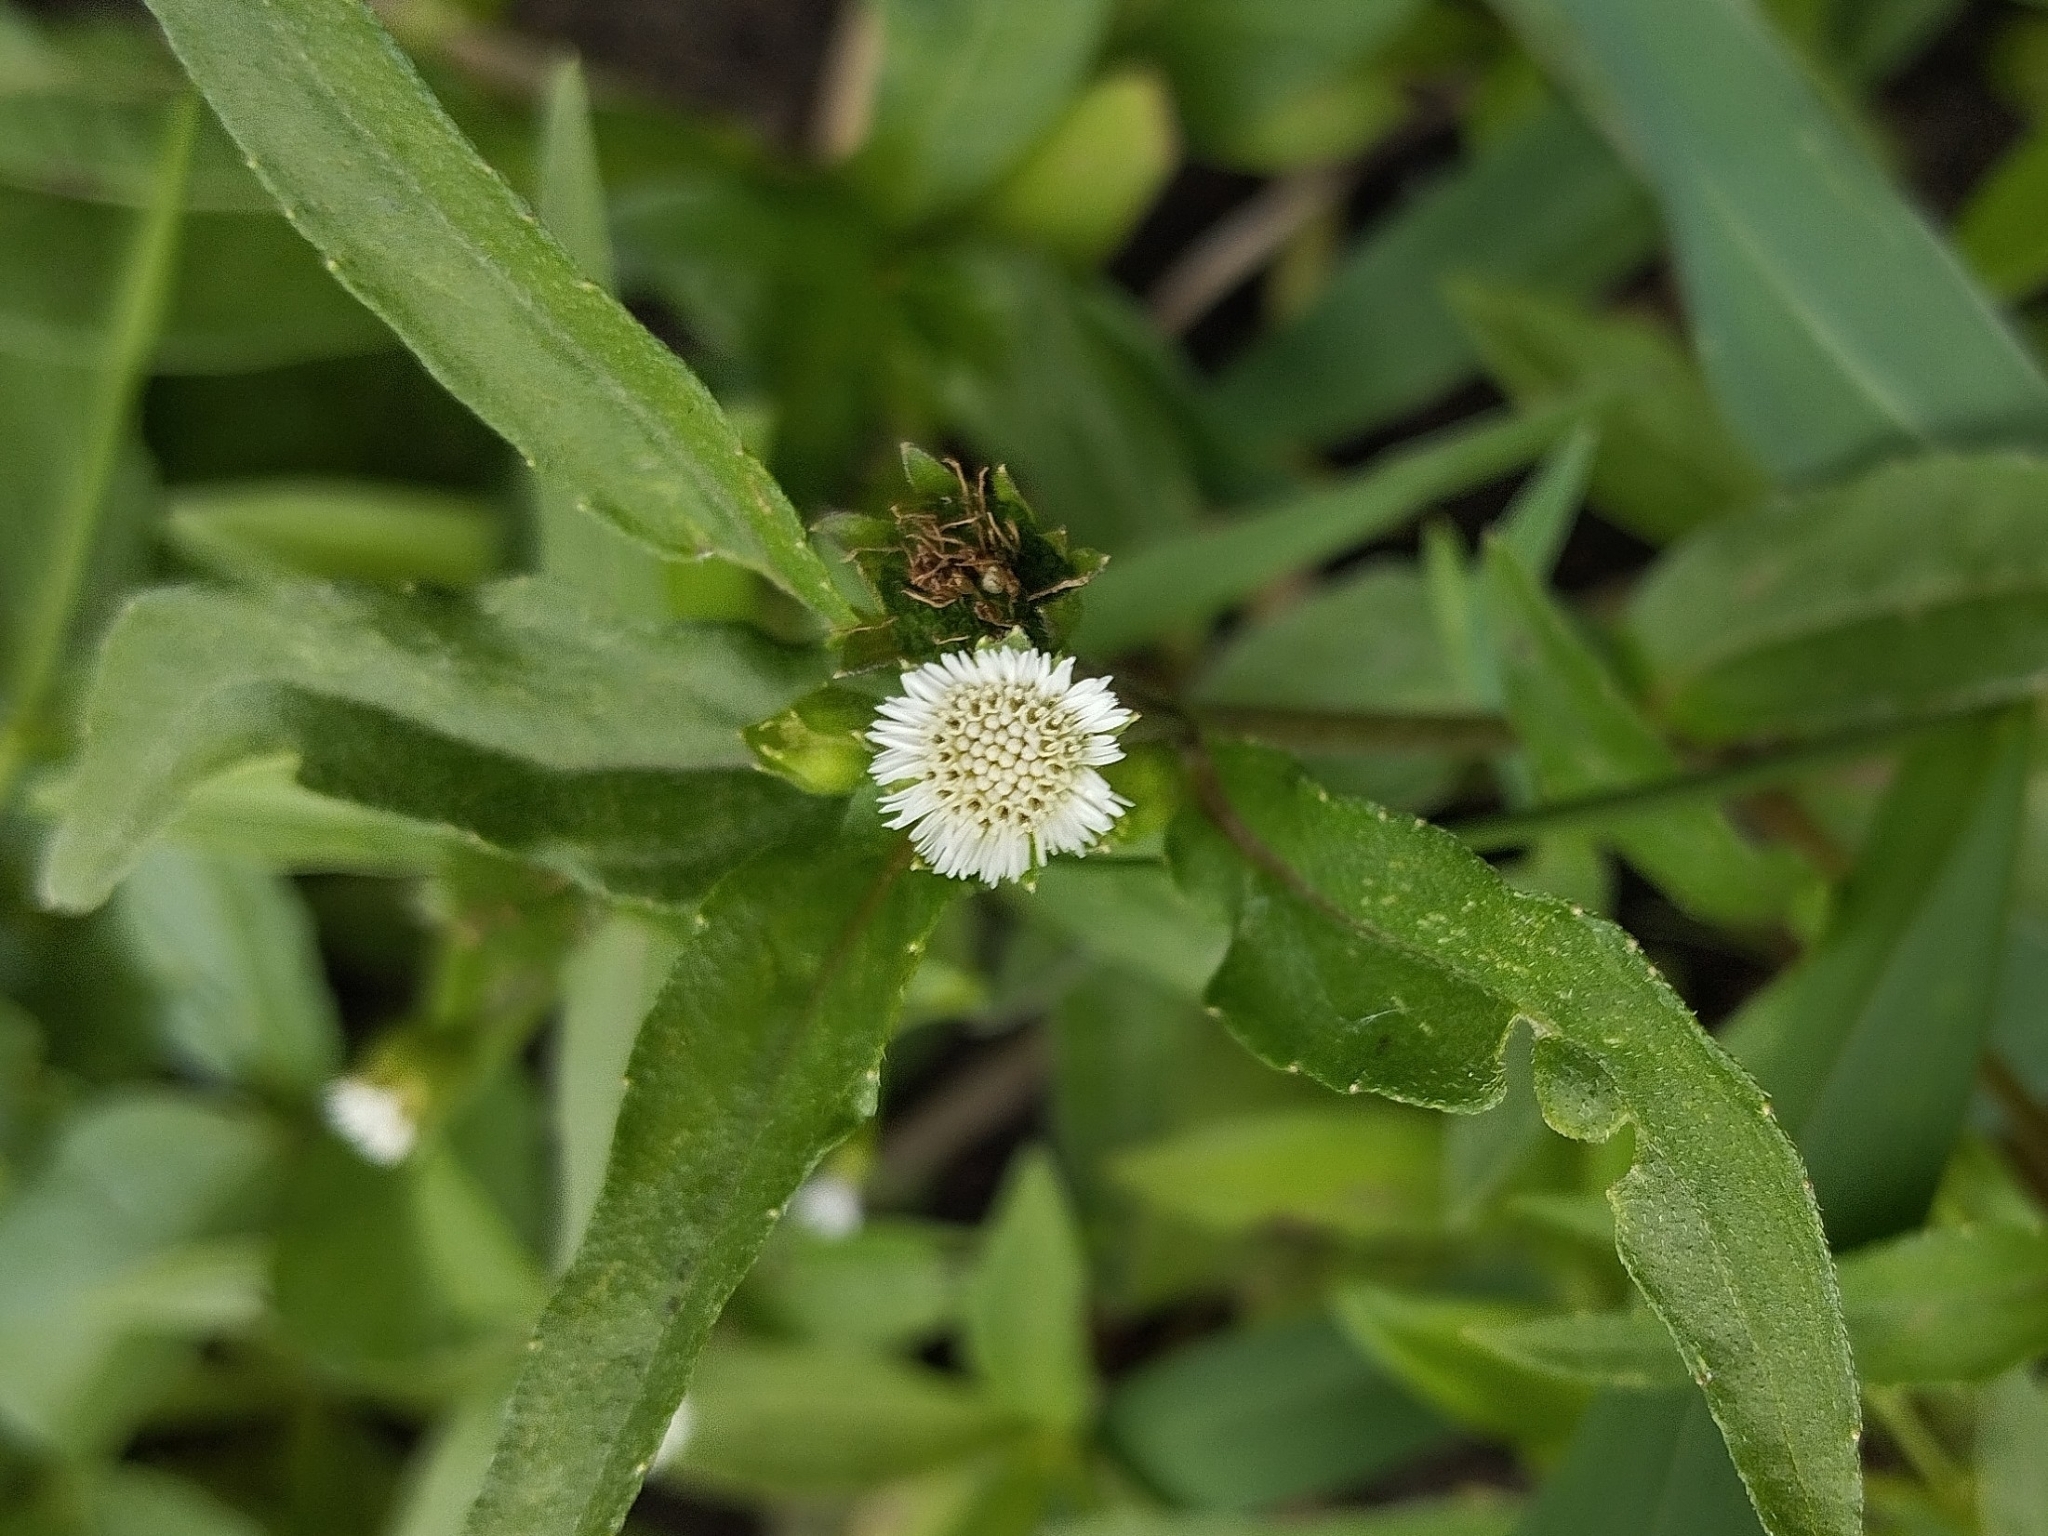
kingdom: Plantae
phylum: Tracheophyta
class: Magnoliopsida
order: Asterales
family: Asteraceae
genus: Eclipta
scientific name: Eclipta prostrata
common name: False daisy
